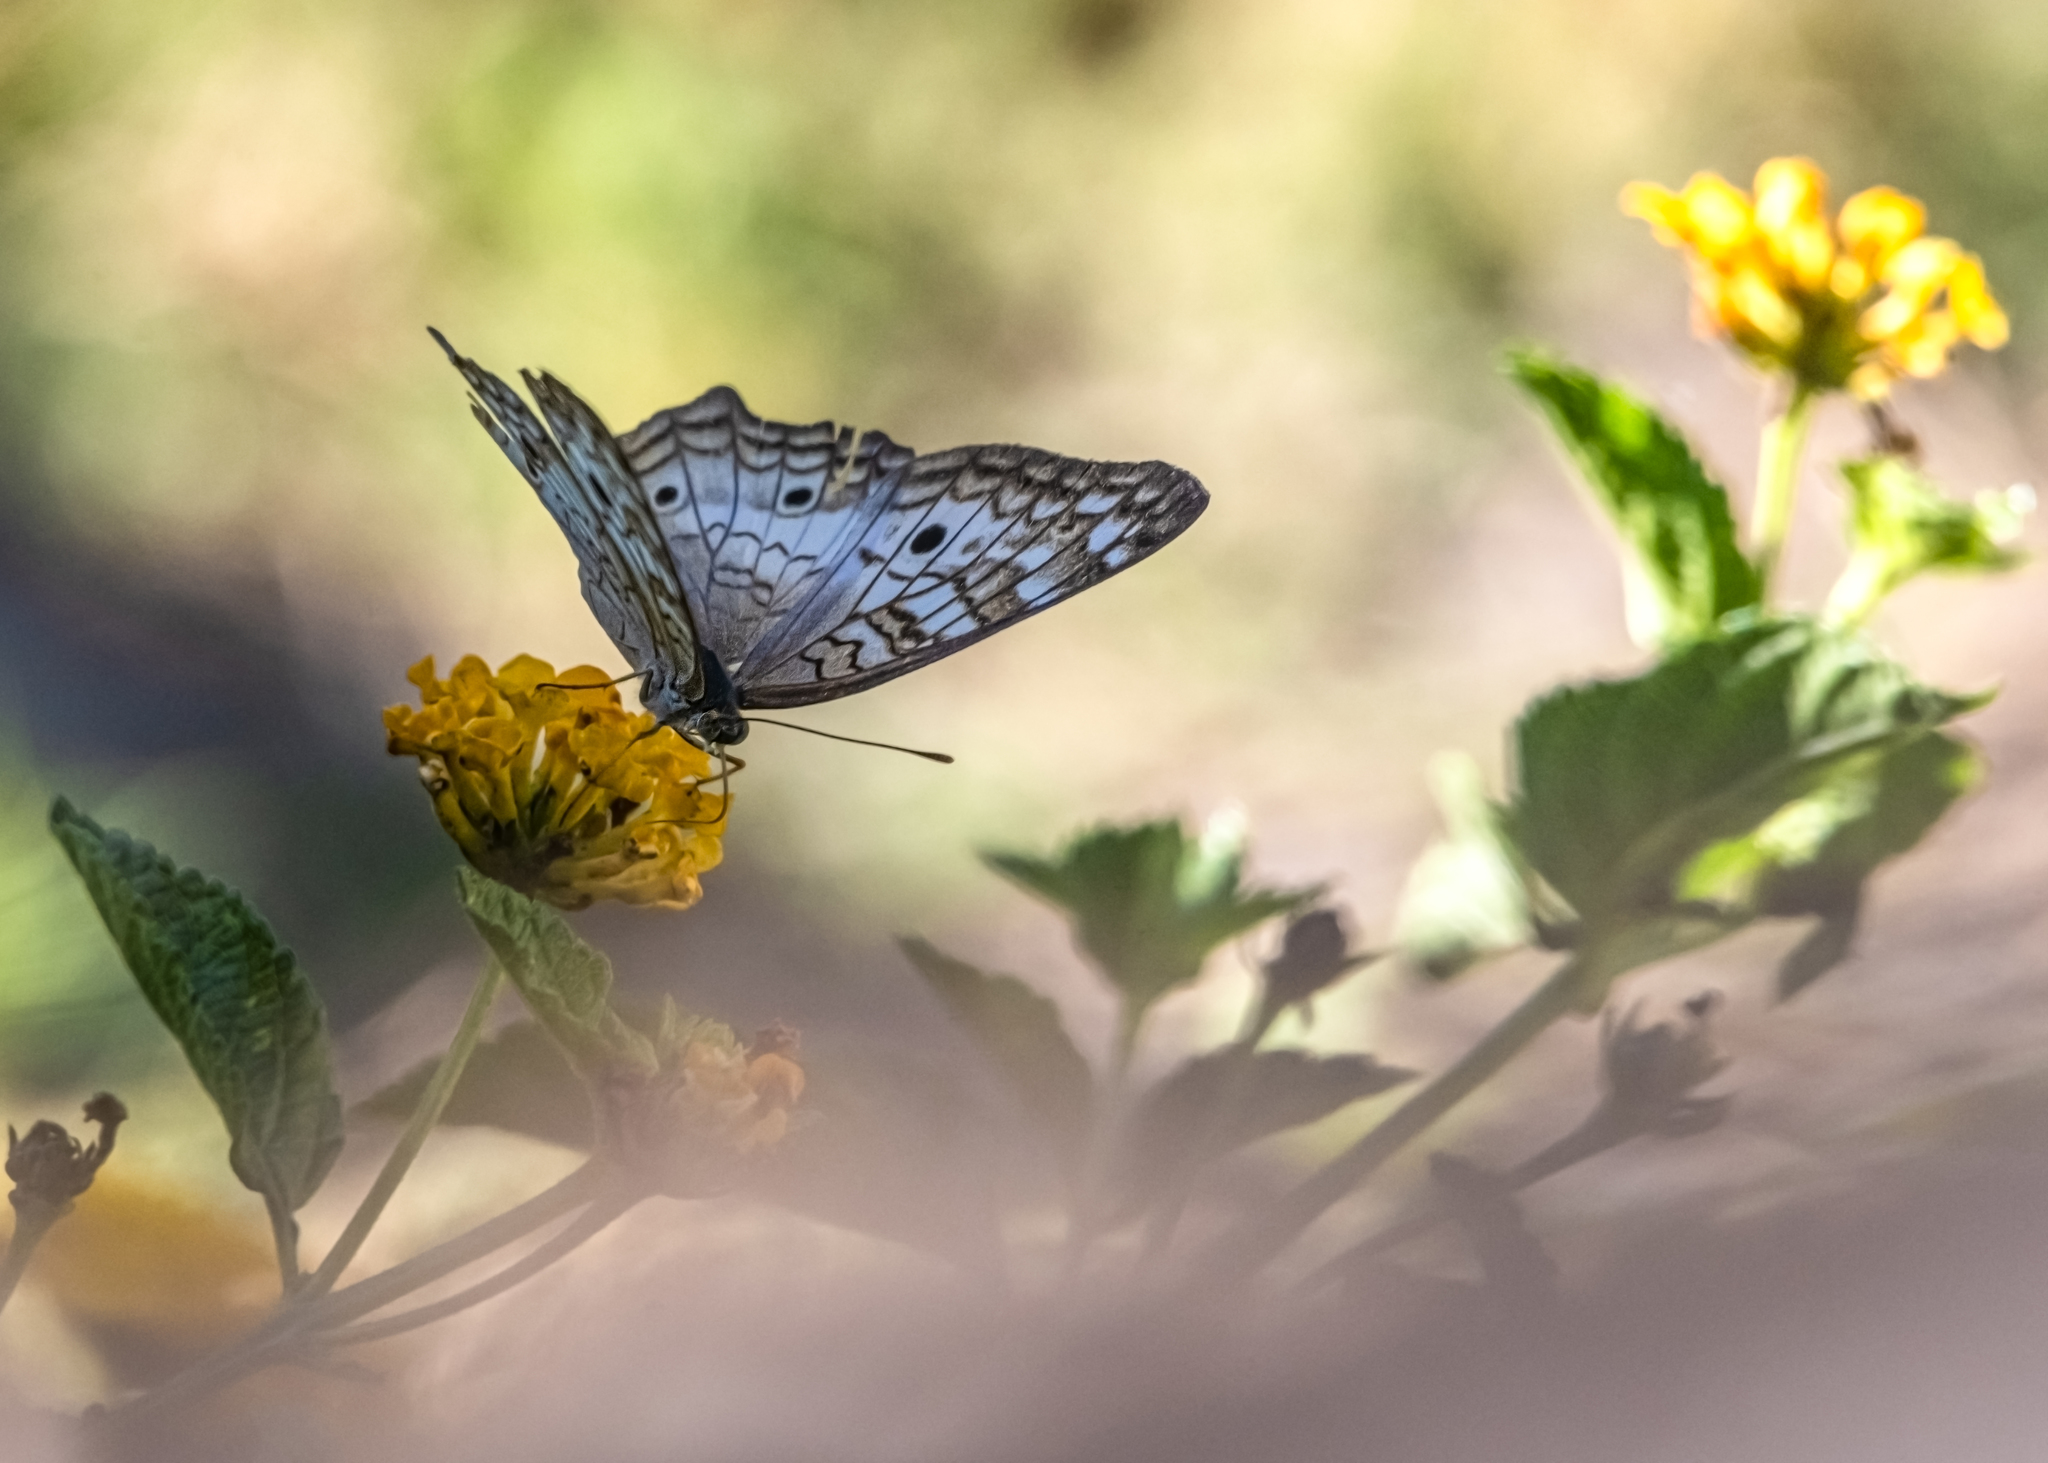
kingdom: Animalia
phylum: Arthropoda
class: Insecta
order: Lepidoptera
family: Nymphalidae
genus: Anartia
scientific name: Anartia jatrophae
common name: White peacock
